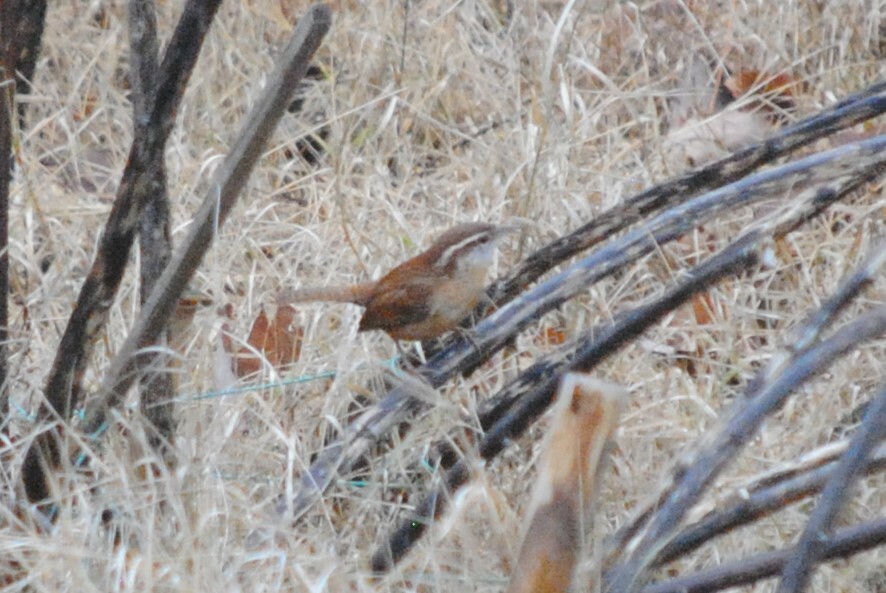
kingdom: Animalia
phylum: Chordata
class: Aves
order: Passeriformes
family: Troglodytidae
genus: Thryothorus
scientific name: Thryothorus ludovicianus
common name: Carolina wren
